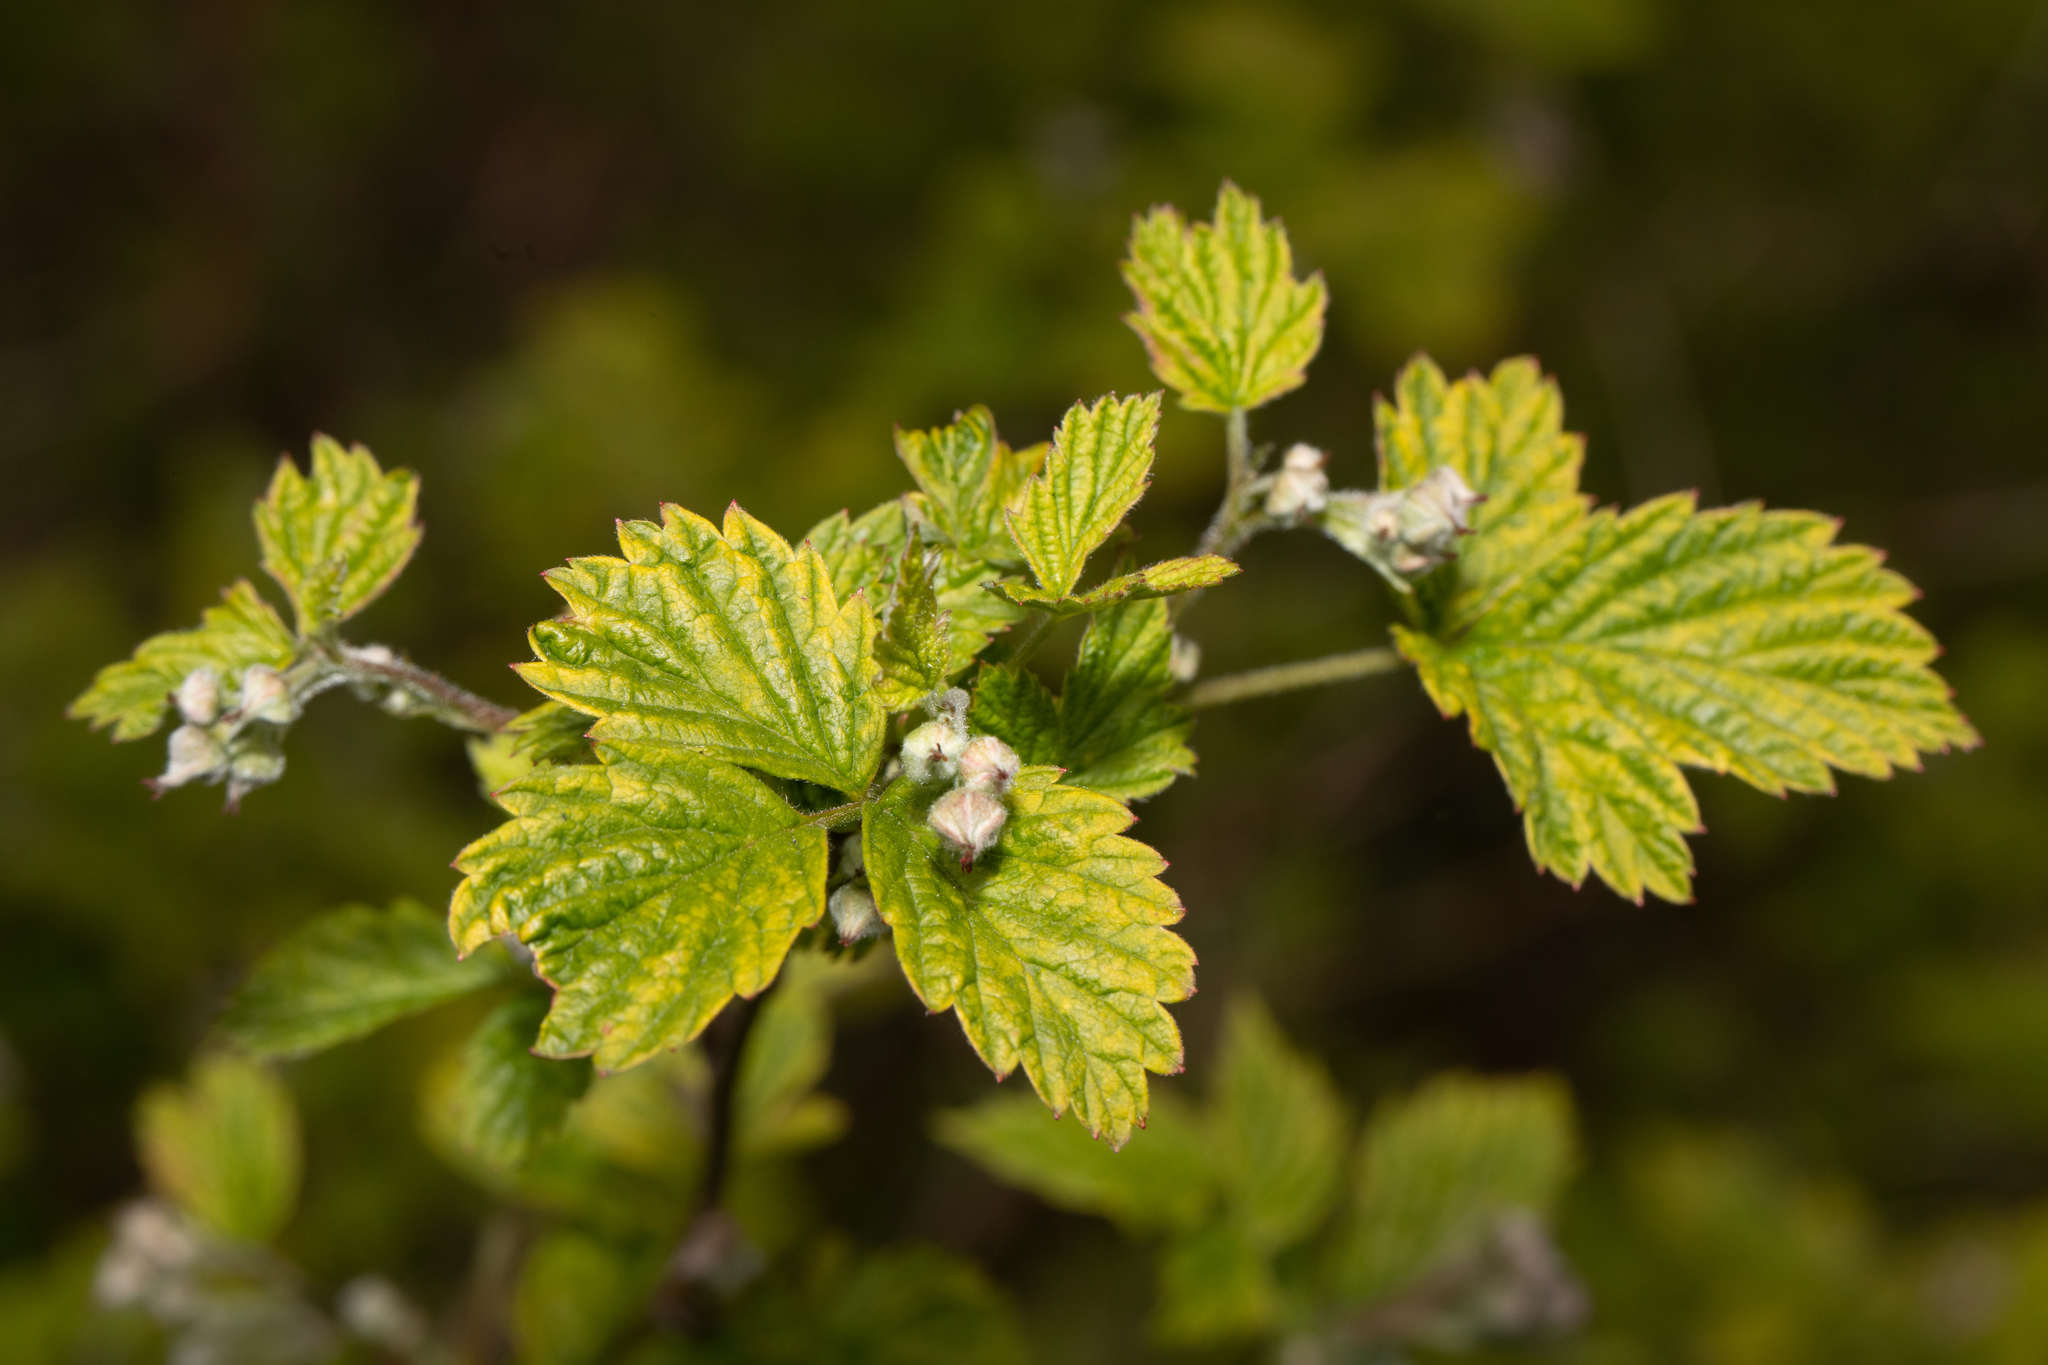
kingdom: Plantae
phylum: Tracheophyta
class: Magnoliopsida
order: Rosales
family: Rosaceae
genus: Rubus
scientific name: Rubus idaeus
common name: Raspberry
